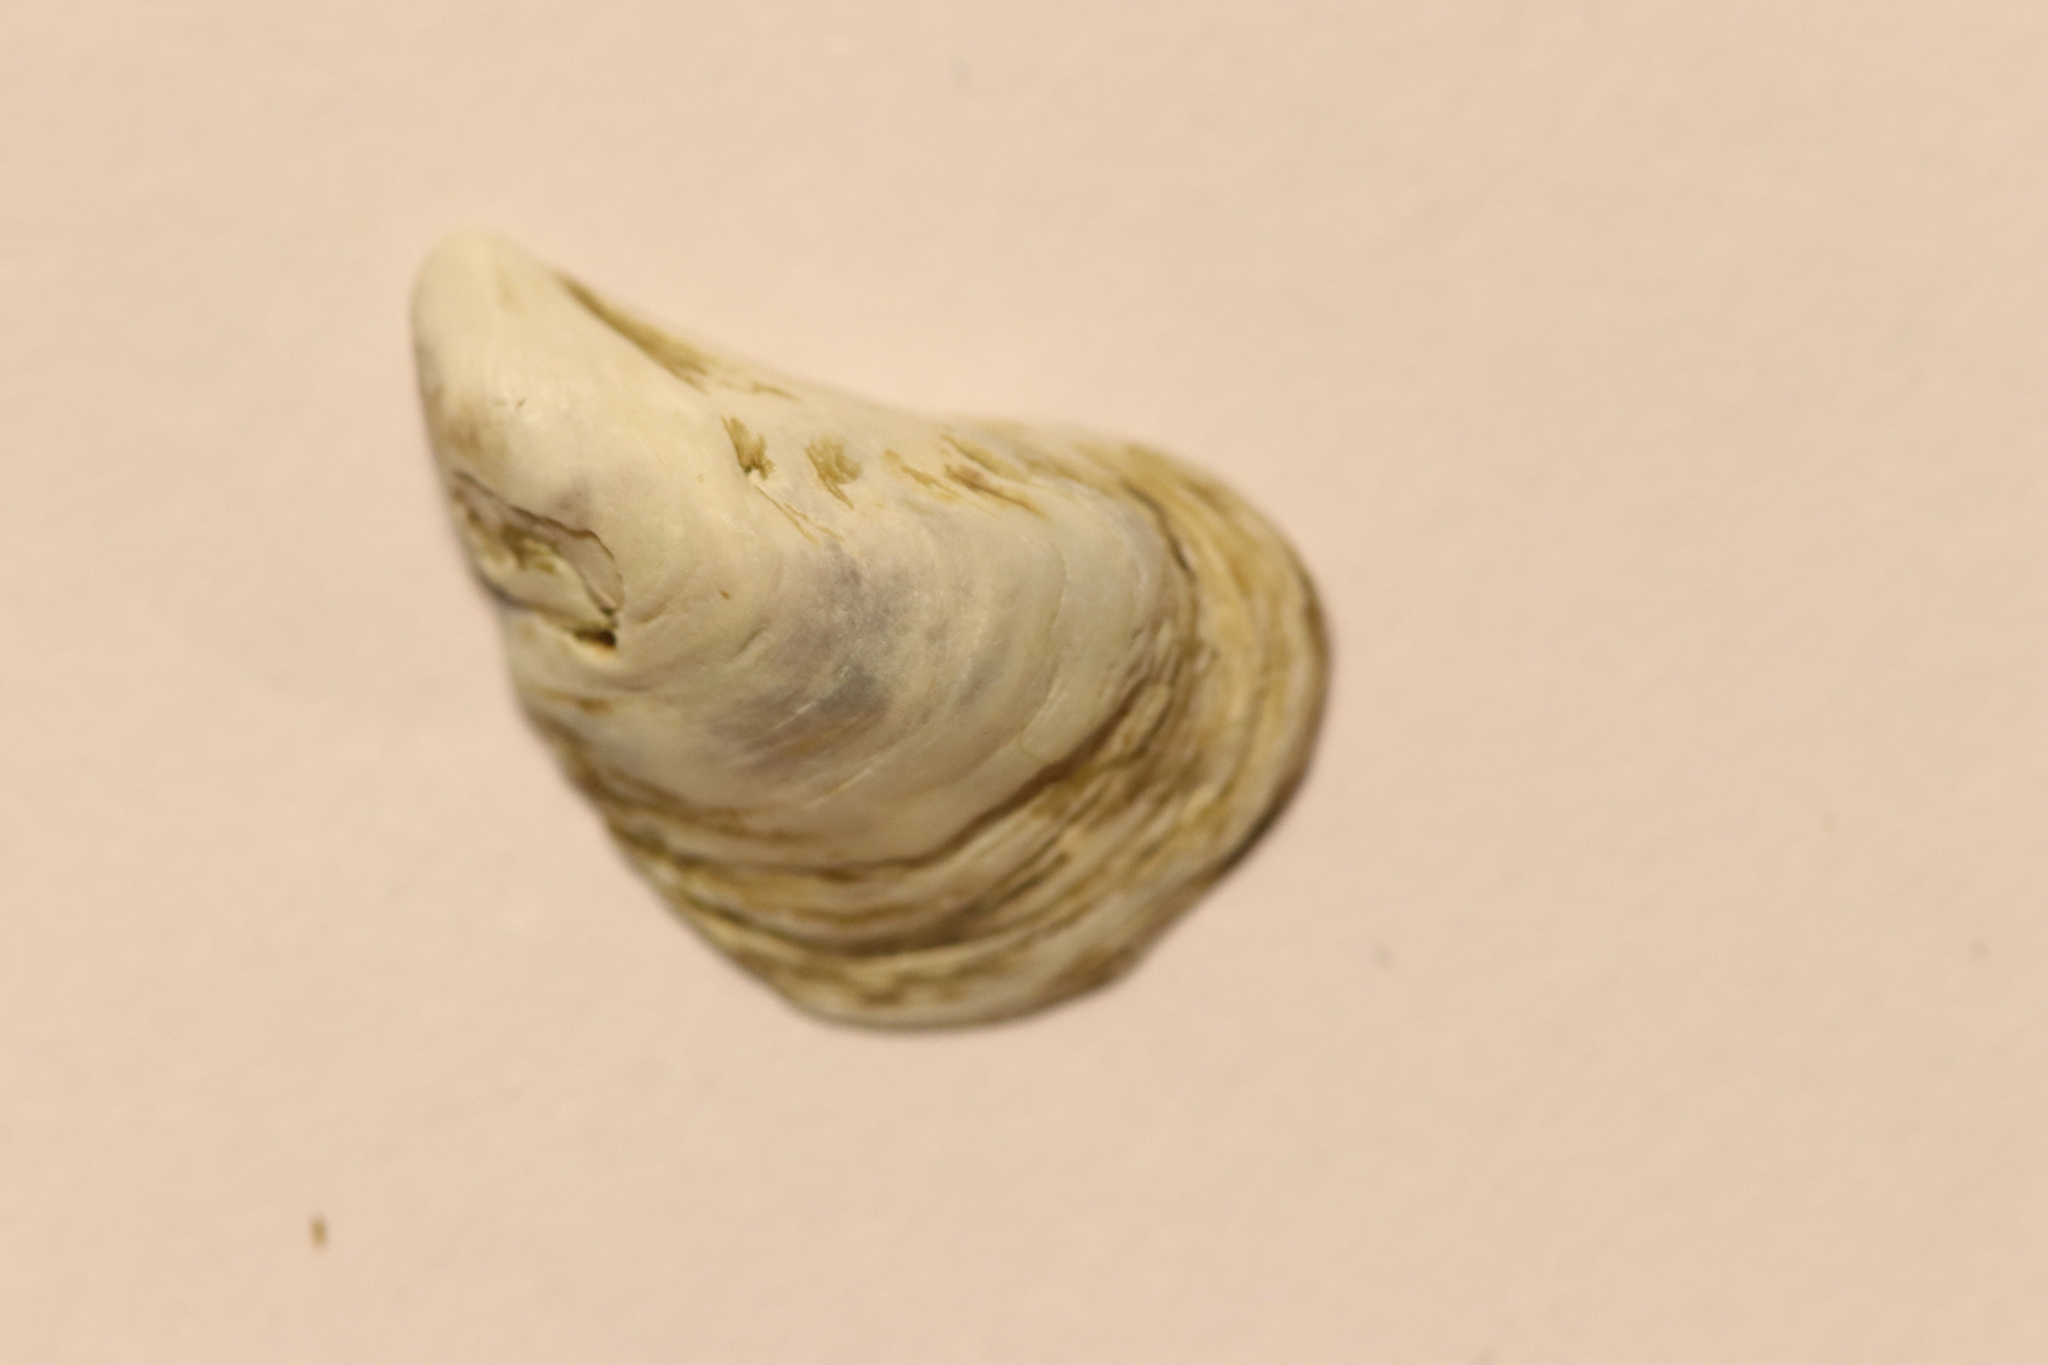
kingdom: Animalia
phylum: Mollusca
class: Bivalvia
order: Myida
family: Dreissenidae
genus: Dreissena
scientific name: Dreissena bugensis
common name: Quagga mussel
